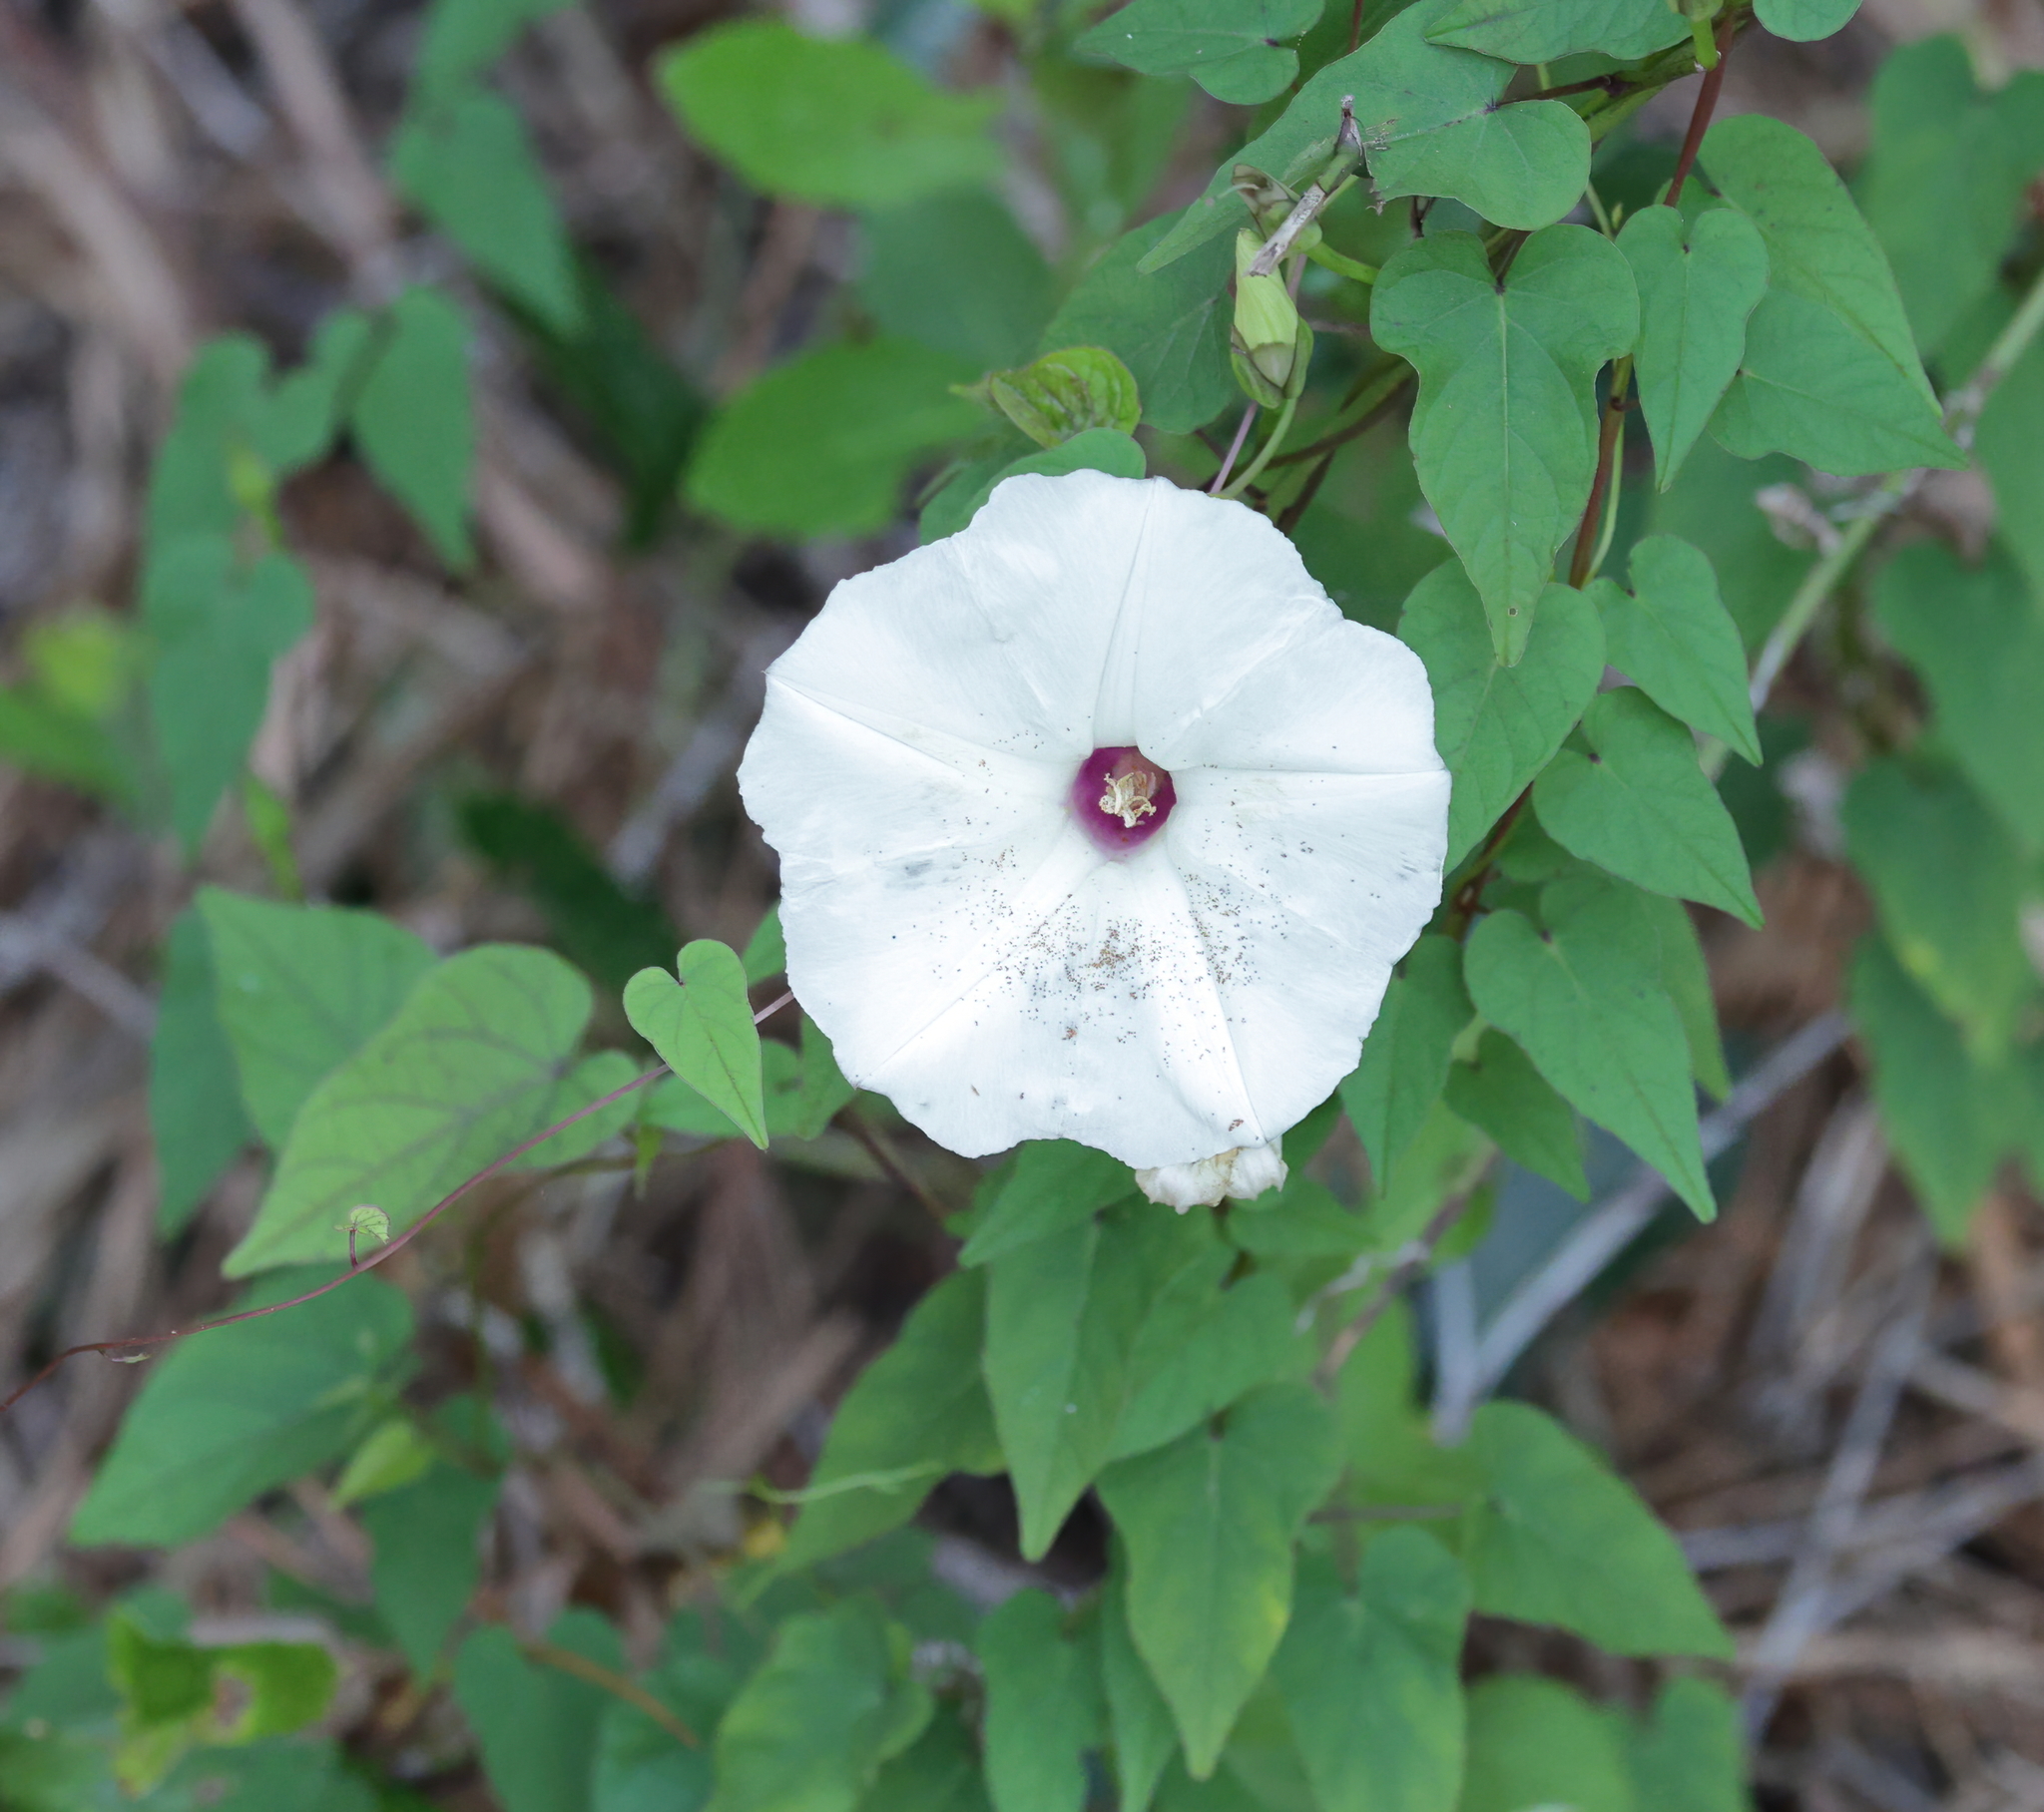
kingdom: Plantae
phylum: Tracheophyta
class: Magnoliopsida
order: Solanales
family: Convolvulaceae
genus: Ipomoea
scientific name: Ipomoea pandurata
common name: Man-of-the-earth
